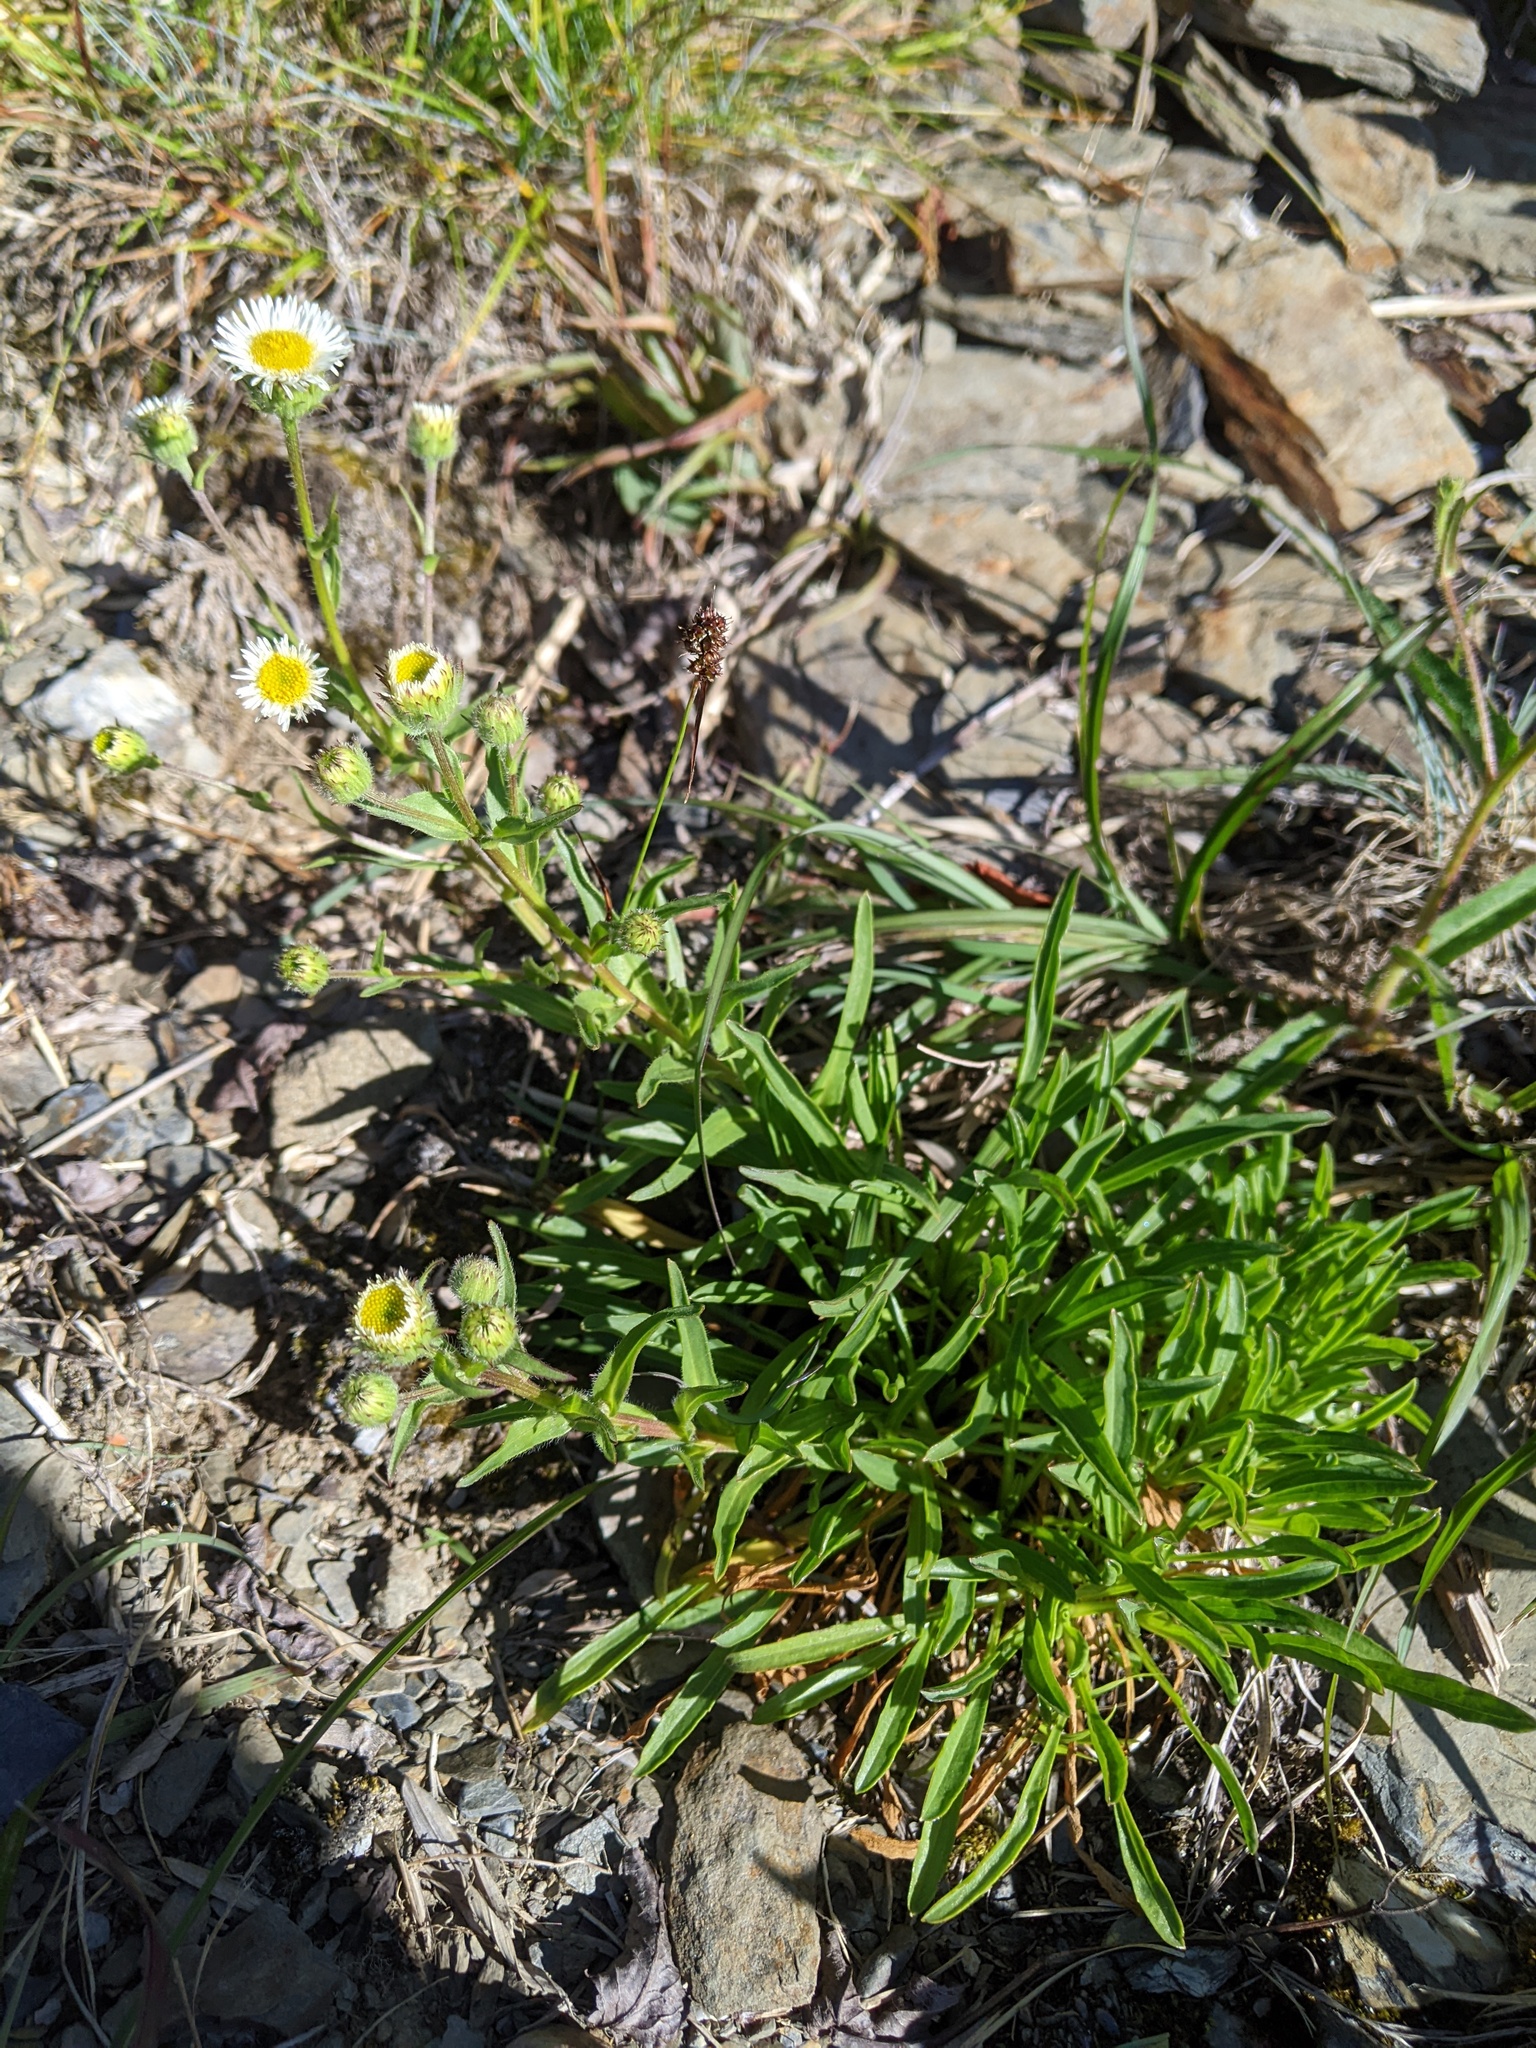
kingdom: Plantae
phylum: Tracheophyta
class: Magnoliopsida
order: Asterales
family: Asteraceae
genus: Erigeron
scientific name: Erigeron morrisonensis
